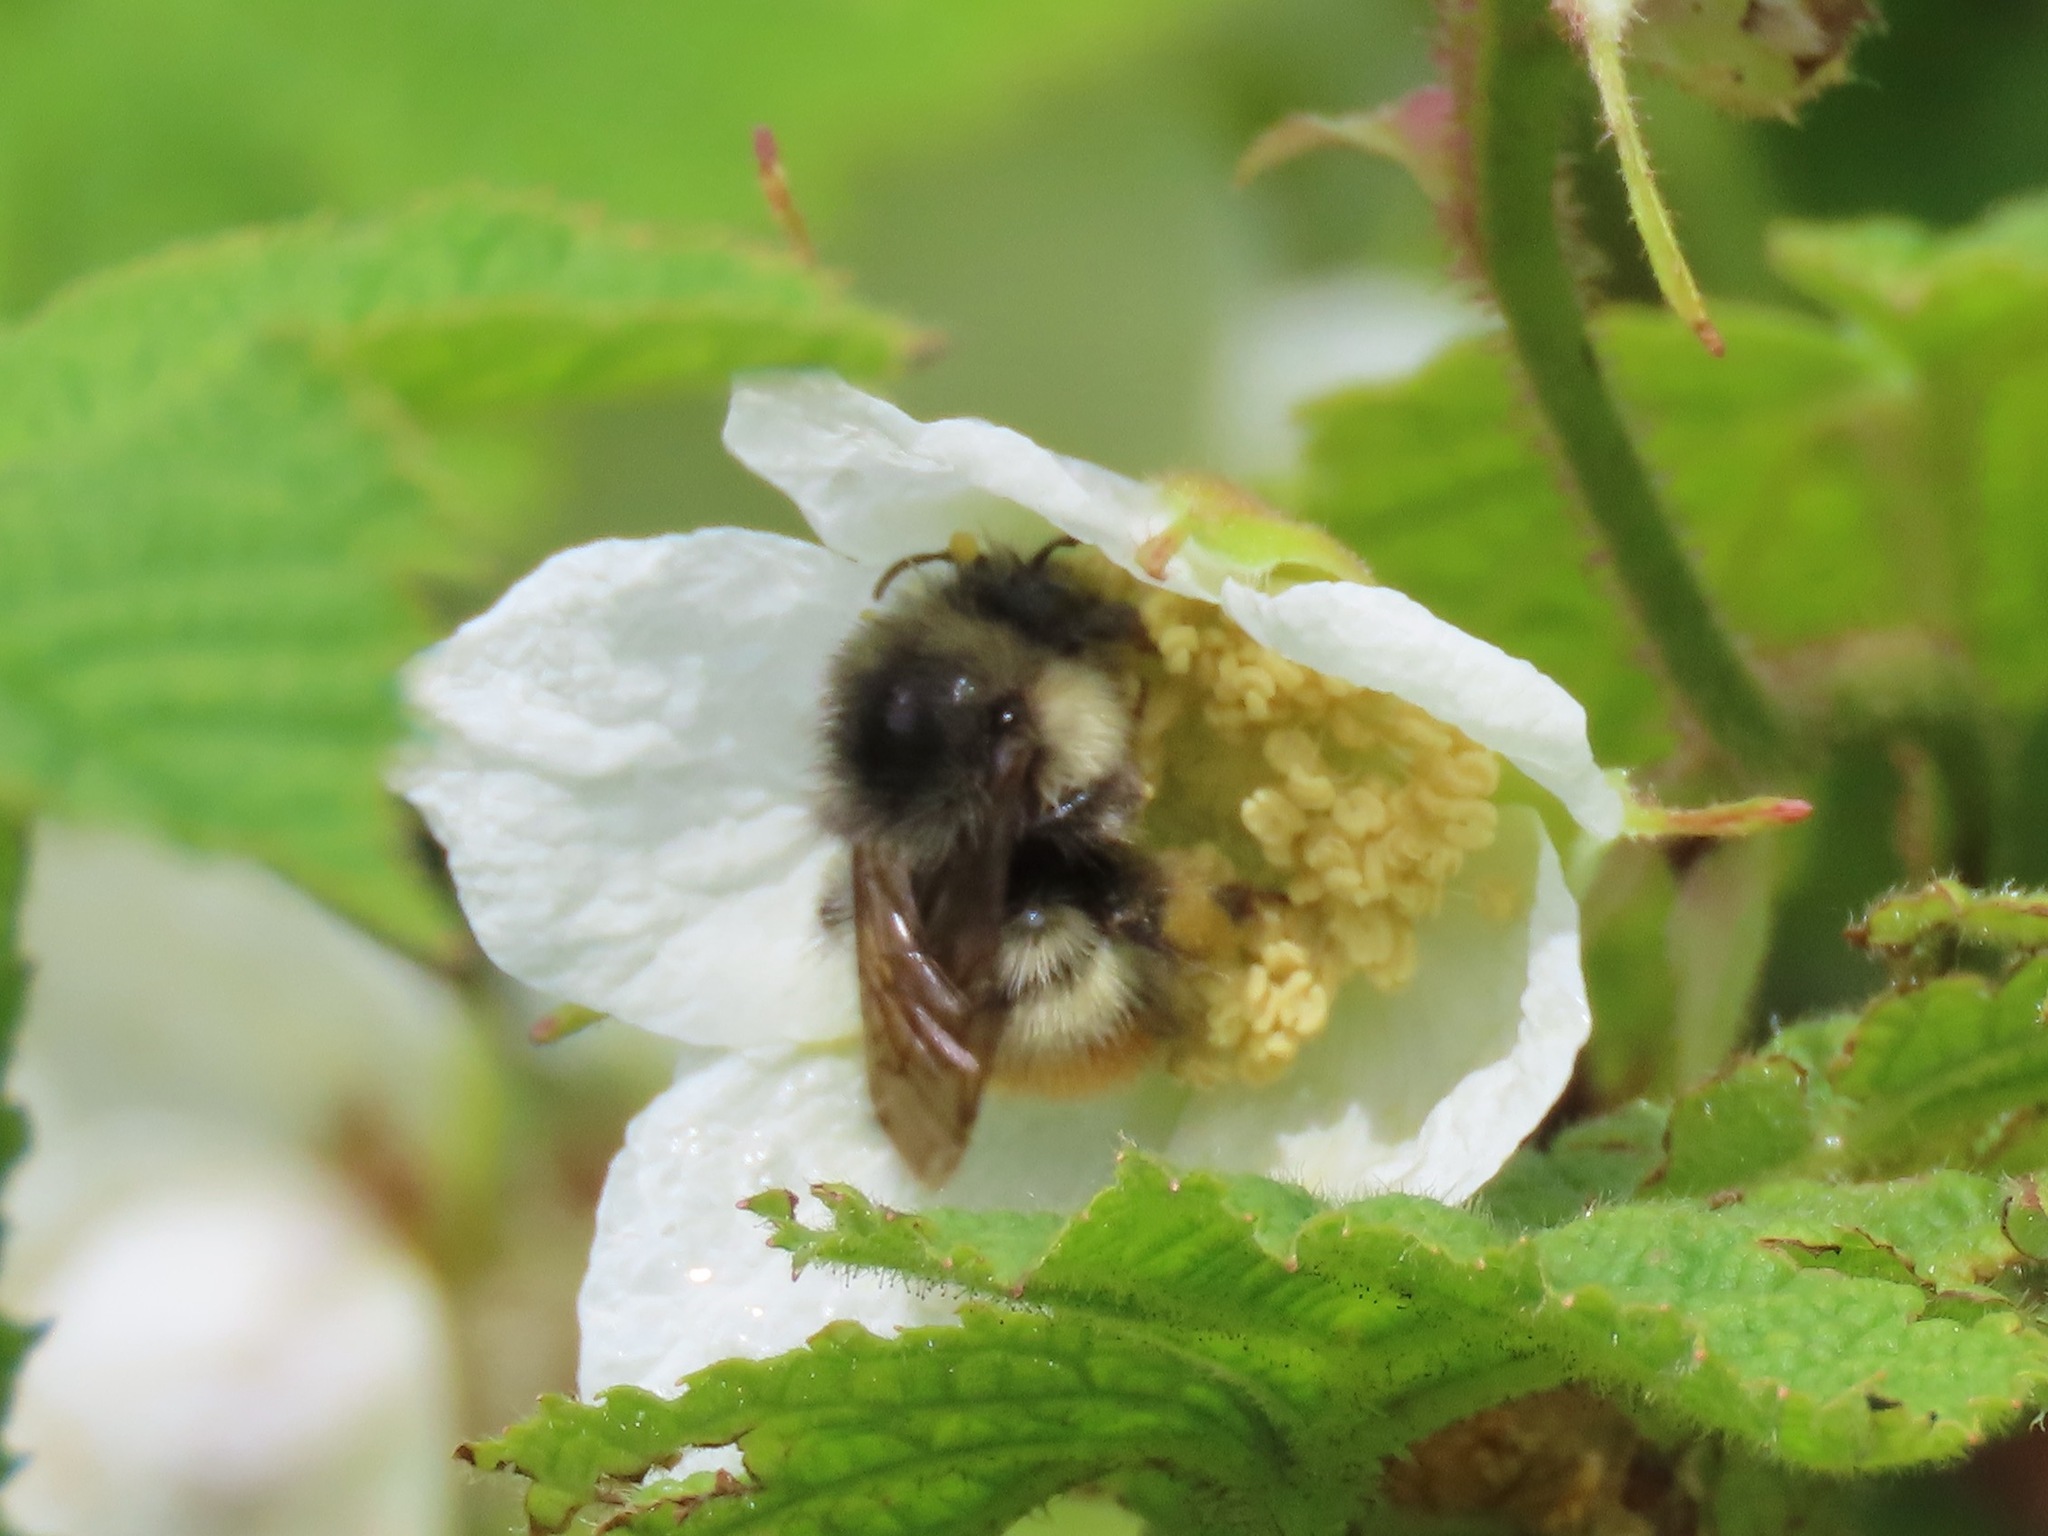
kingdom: Animalia
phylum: Arthropoda
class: Insecta
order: Hymenoptera
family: Apidae
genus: Bombus
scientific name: Bombus flavifrons
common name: Yellow head bumble bee
